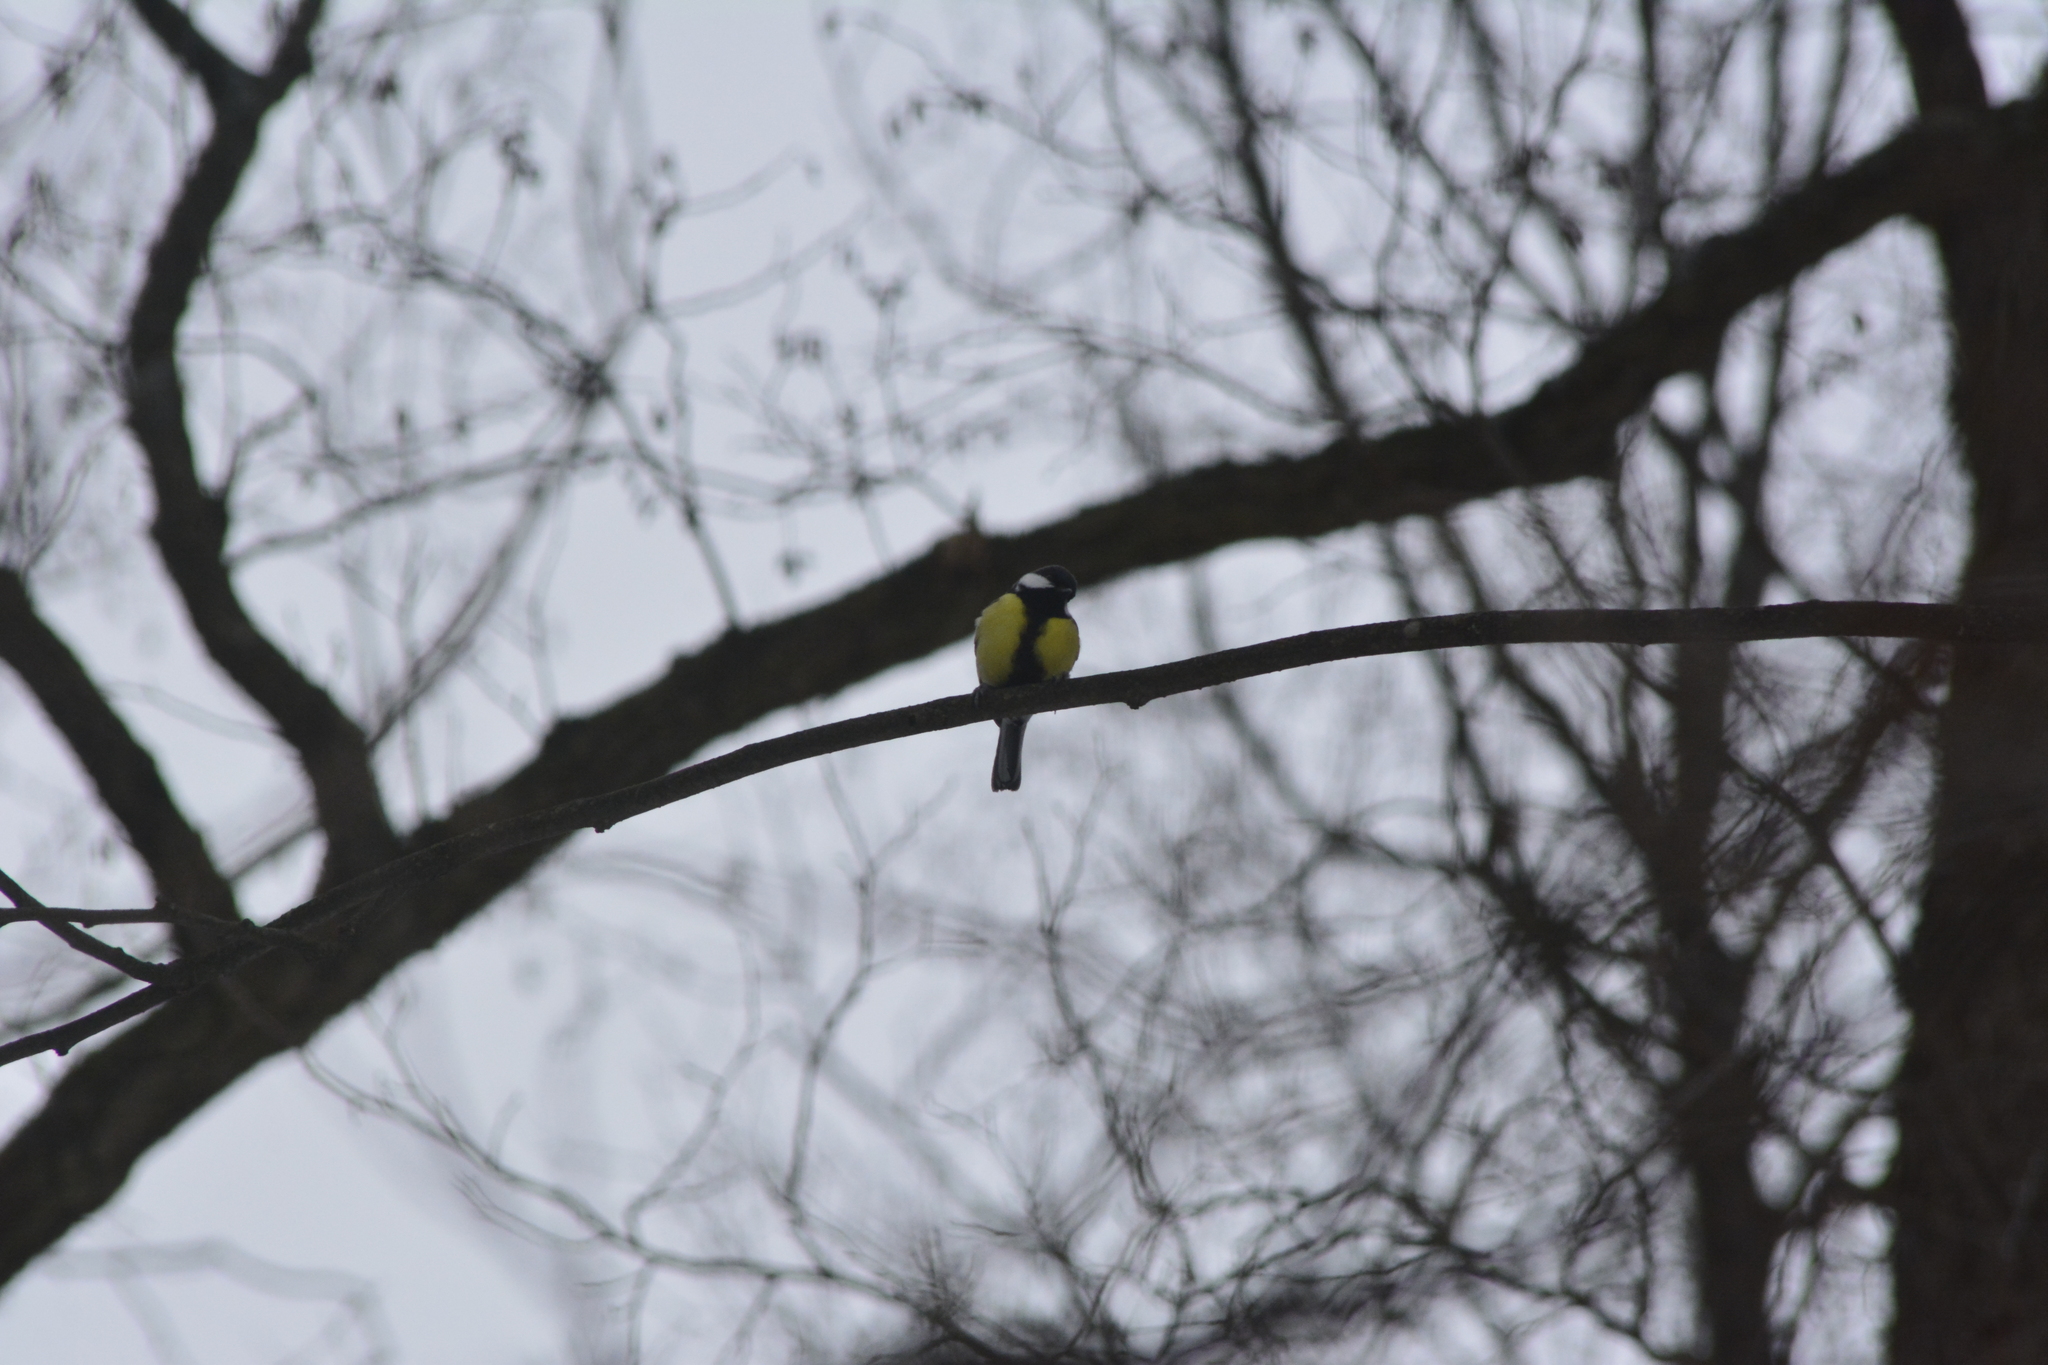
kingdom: Animalia
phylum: Chordata
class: Aves
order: Passeriformes
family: Paridae
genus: Parus
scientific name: Parus major
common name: Great tit
